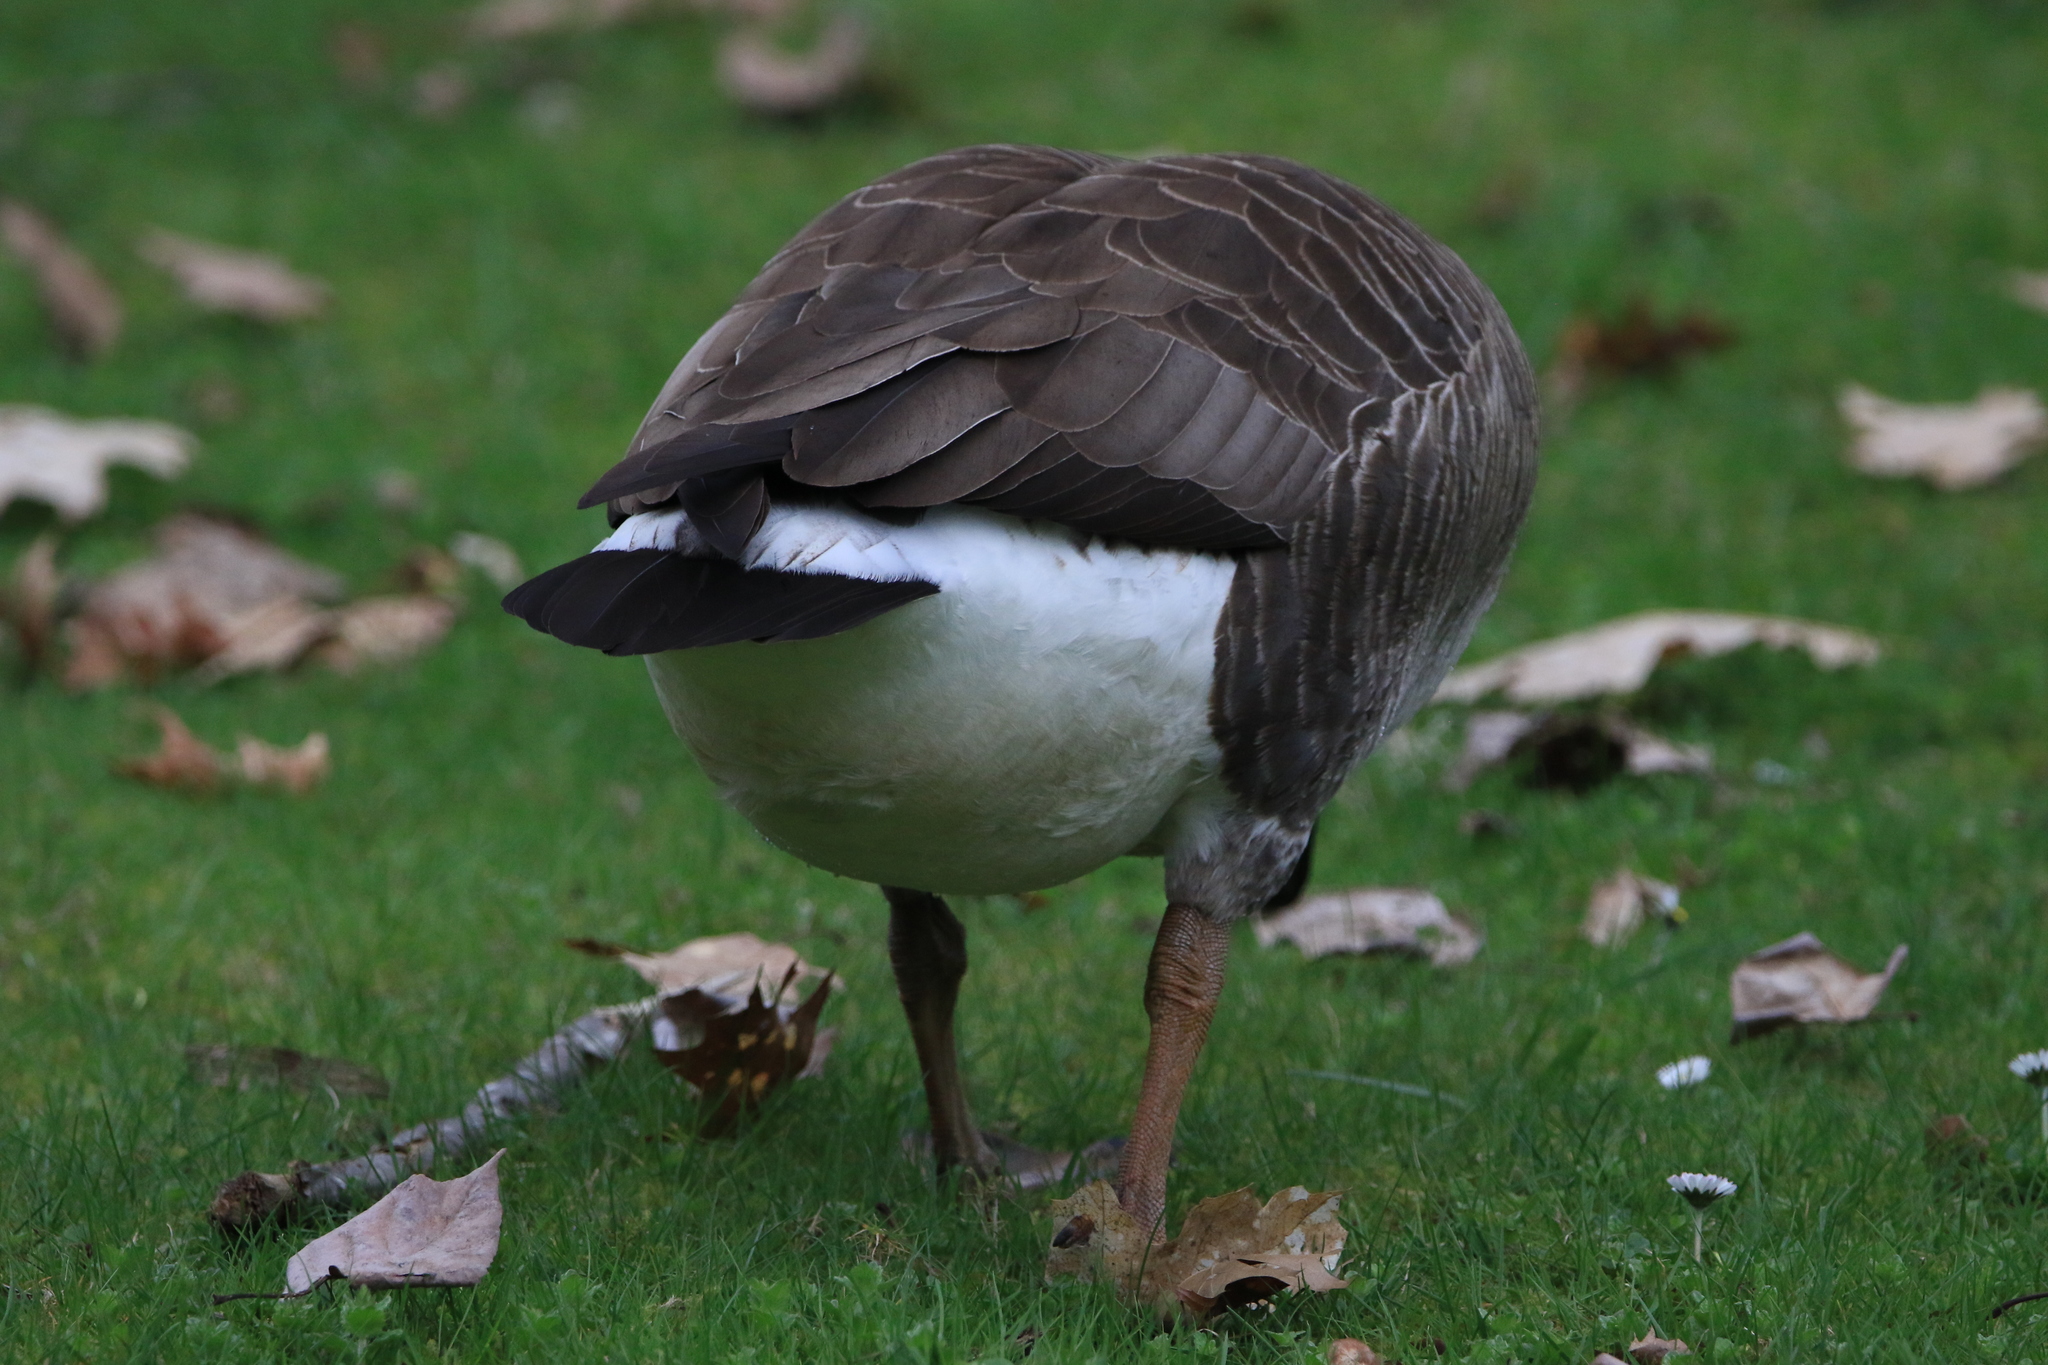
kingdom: Animalia
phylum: Chordata
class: Aves
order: Anseriformes
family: Anatidae
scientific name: Anatidae
